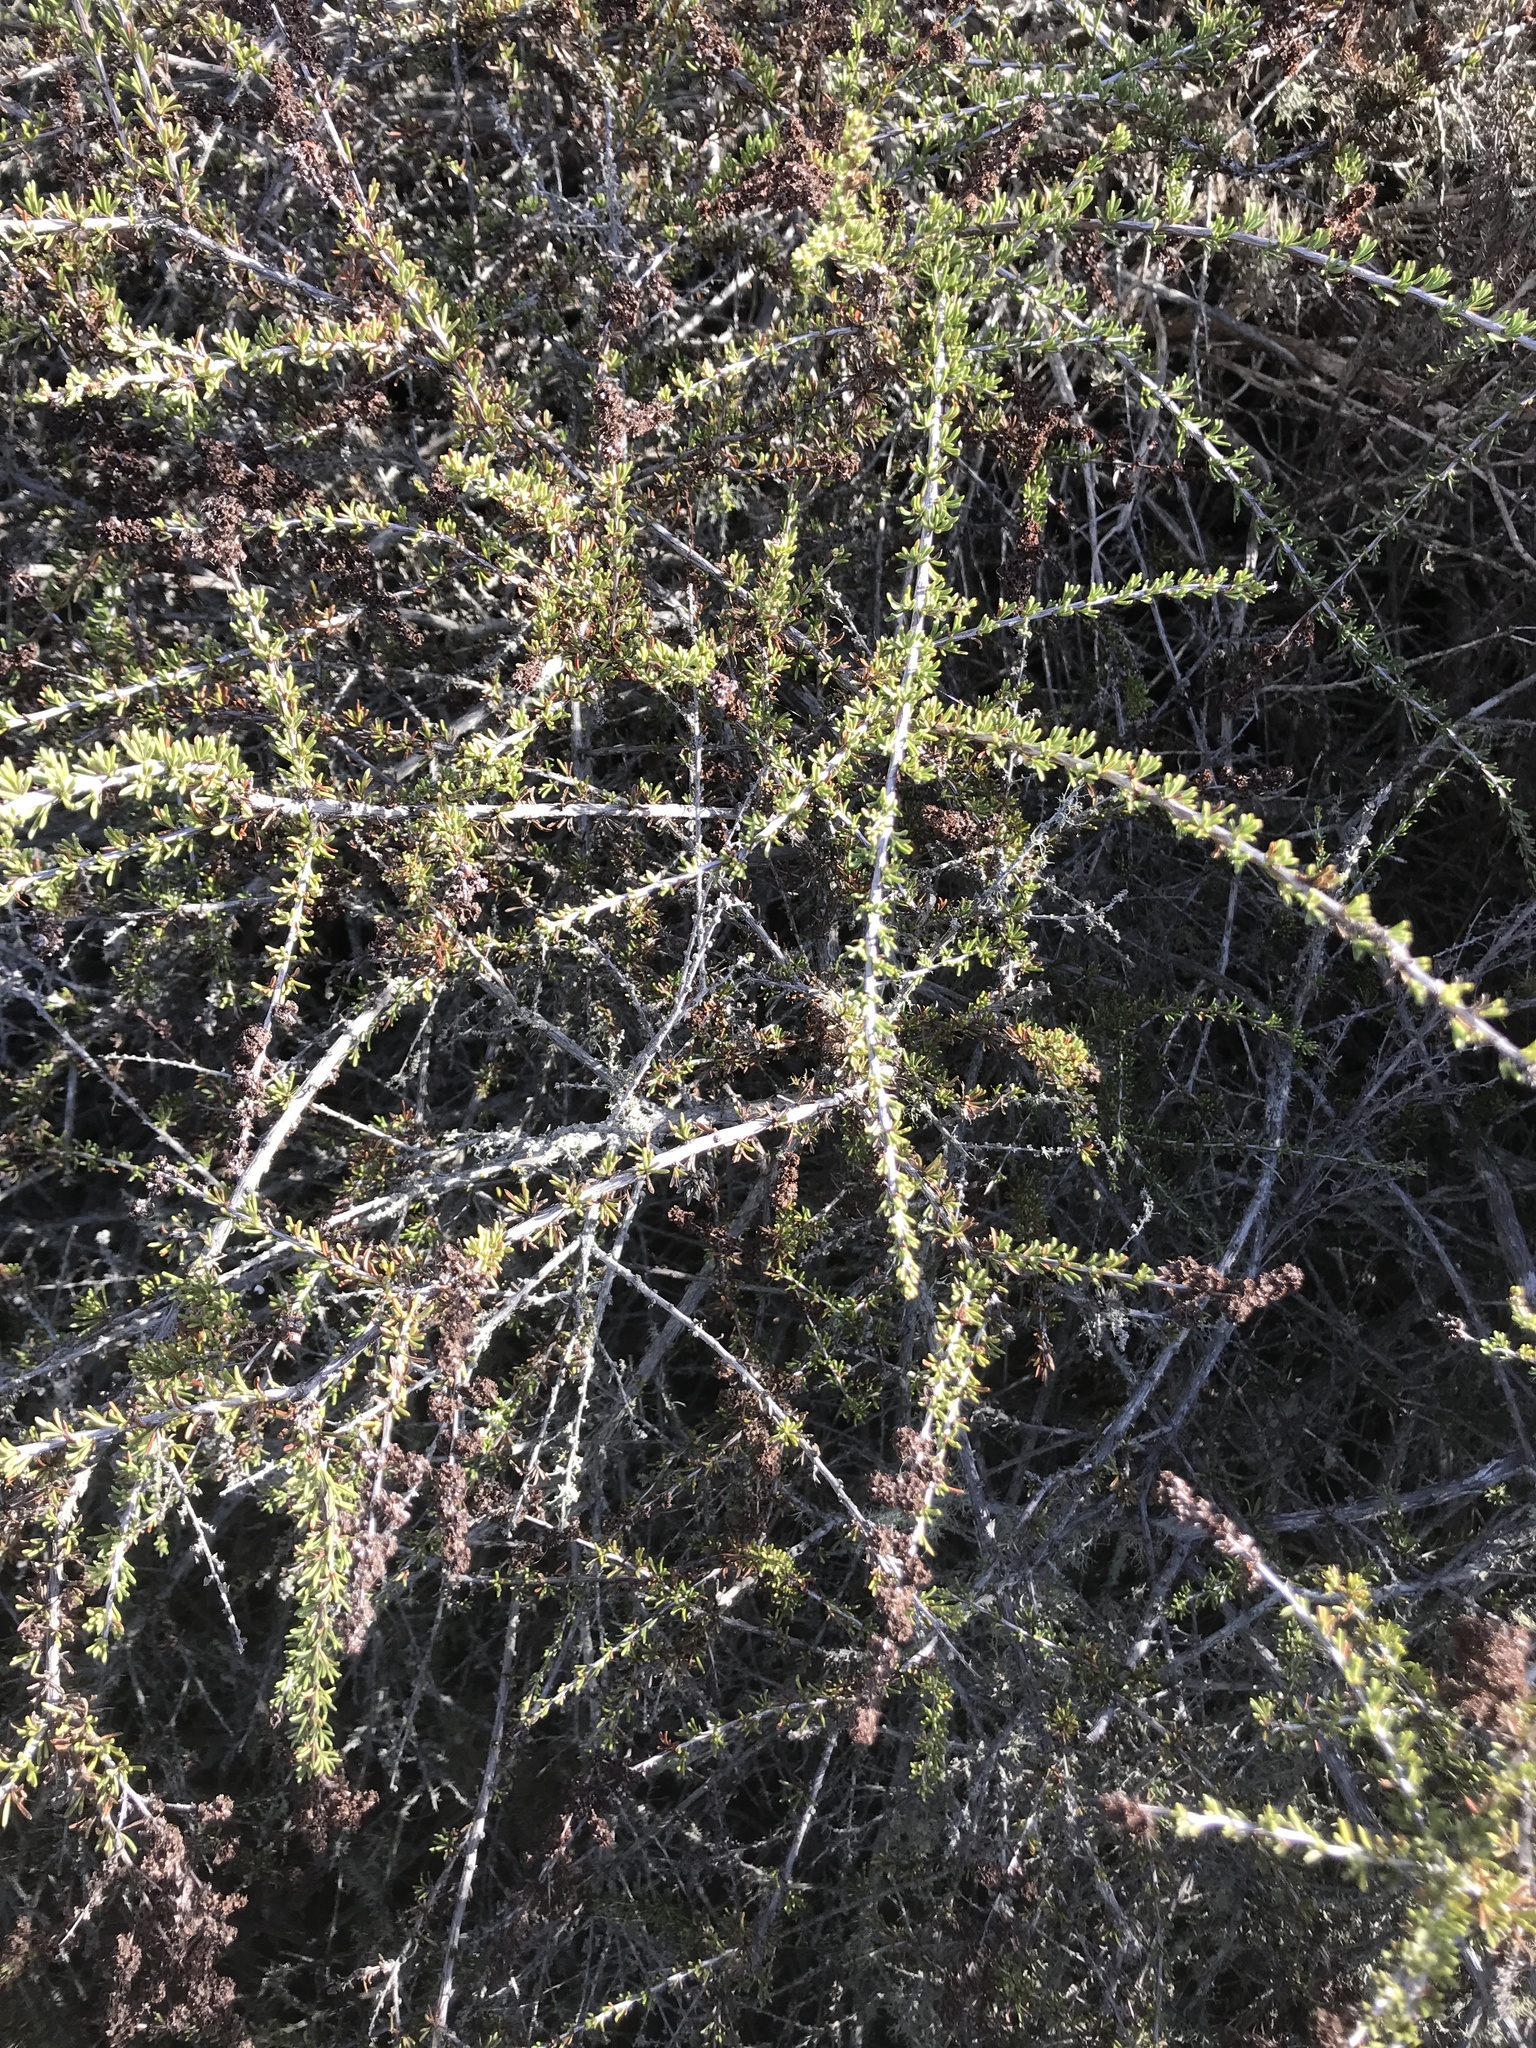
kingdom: Plantae
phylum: Tracheophyta
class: Magnoliopsida
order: Rosales
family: Rosaceae
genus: Adenostoma
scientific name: Adenostoma fasciculatum
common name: Chamise
